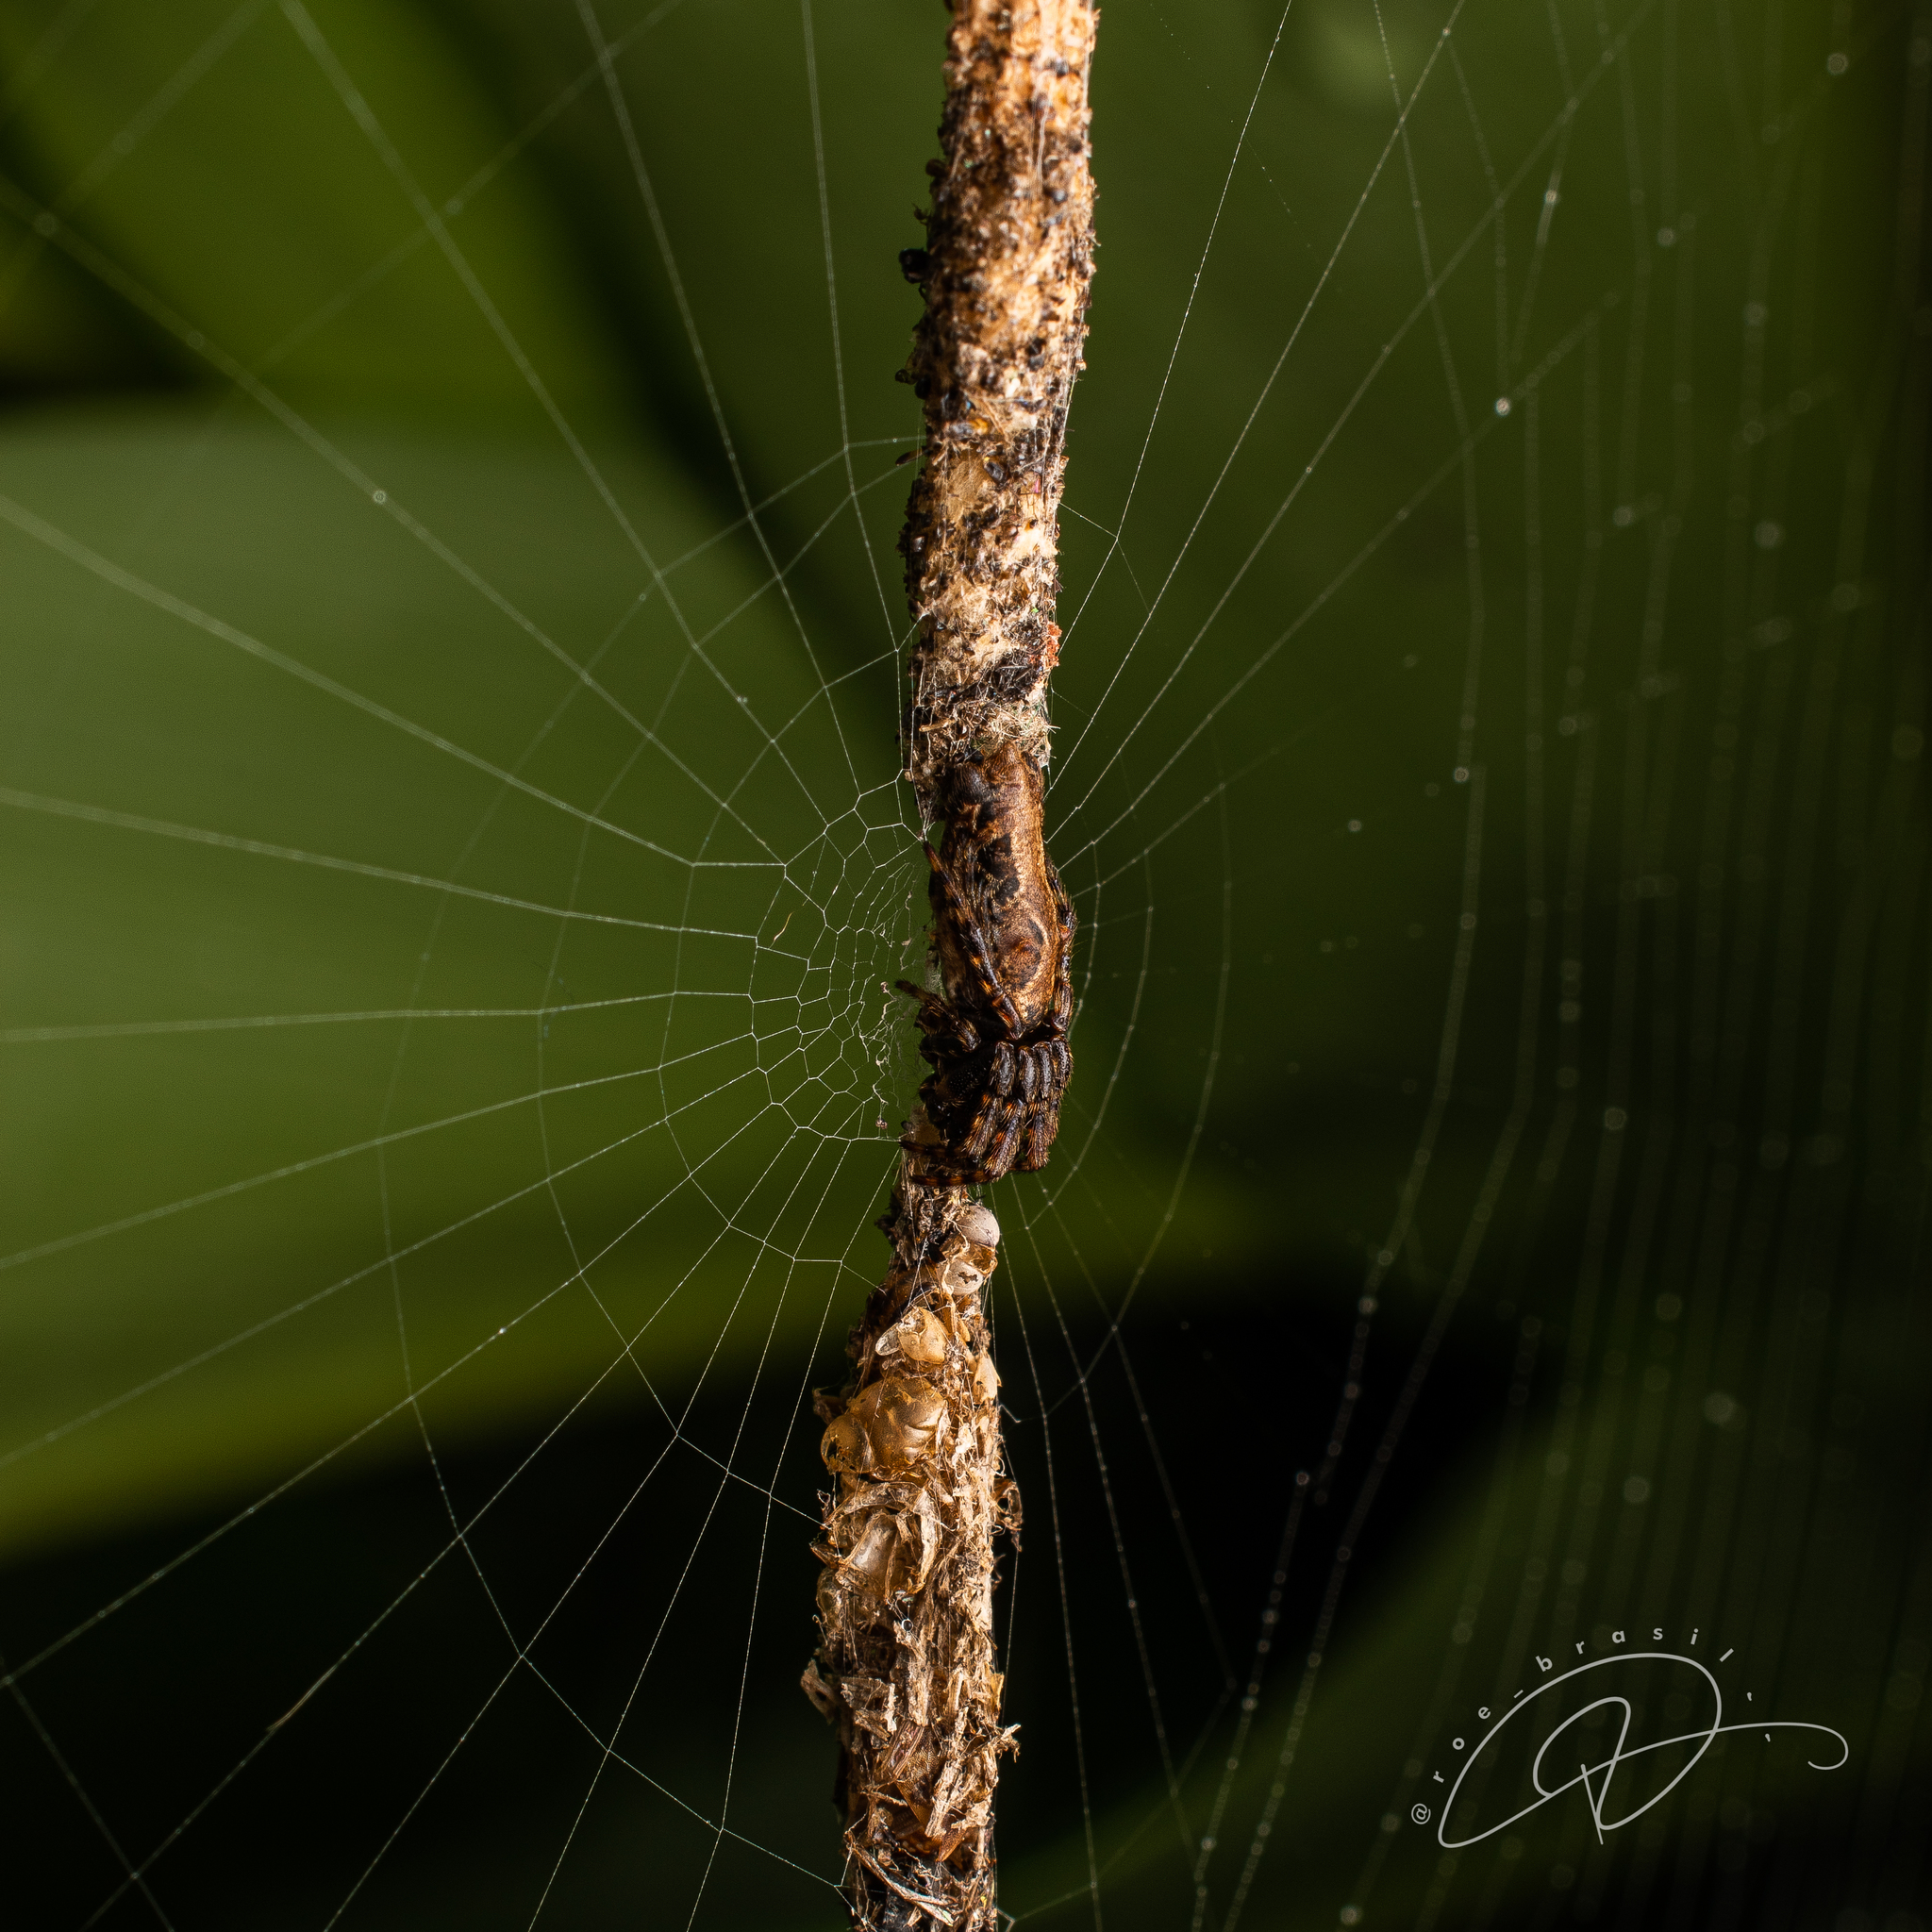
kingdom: Animalia
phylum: Arthropoda
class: Arachnida
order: Araneae
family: Araneidae
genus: Cyclosa
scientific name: Cyclosa bifurcata
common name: Orb weavers
